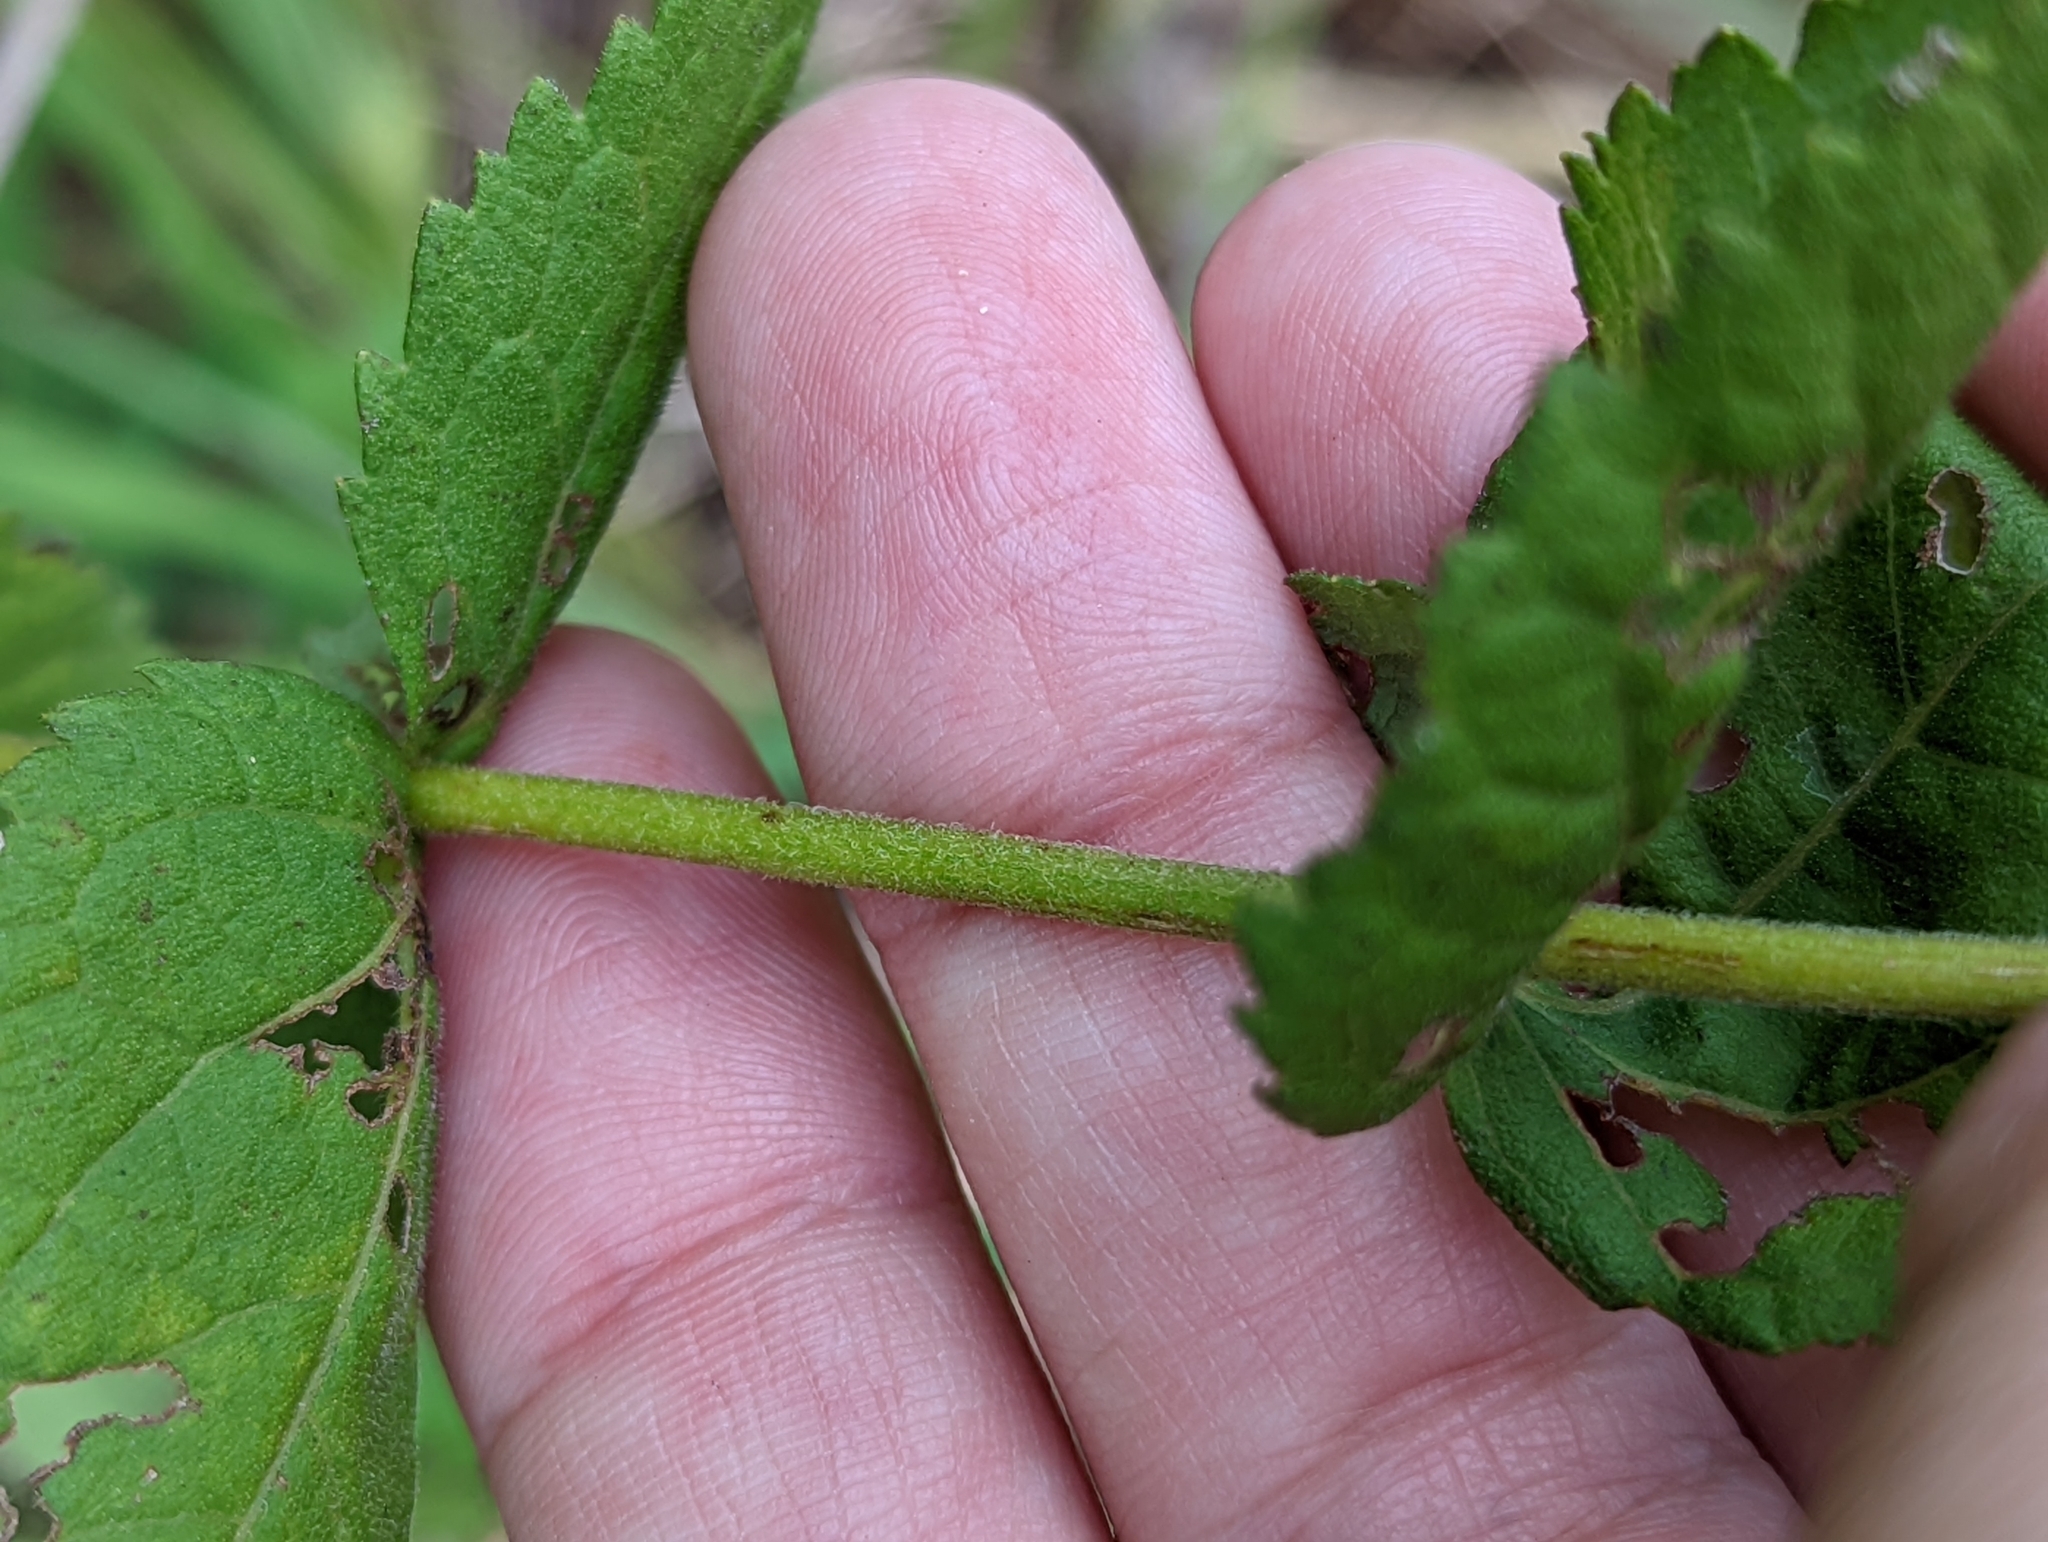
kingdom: Plantae
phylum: Tracheophyta
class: Magnoliopsida
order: Asterales
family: Asteraceae
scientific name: Asteraceae
